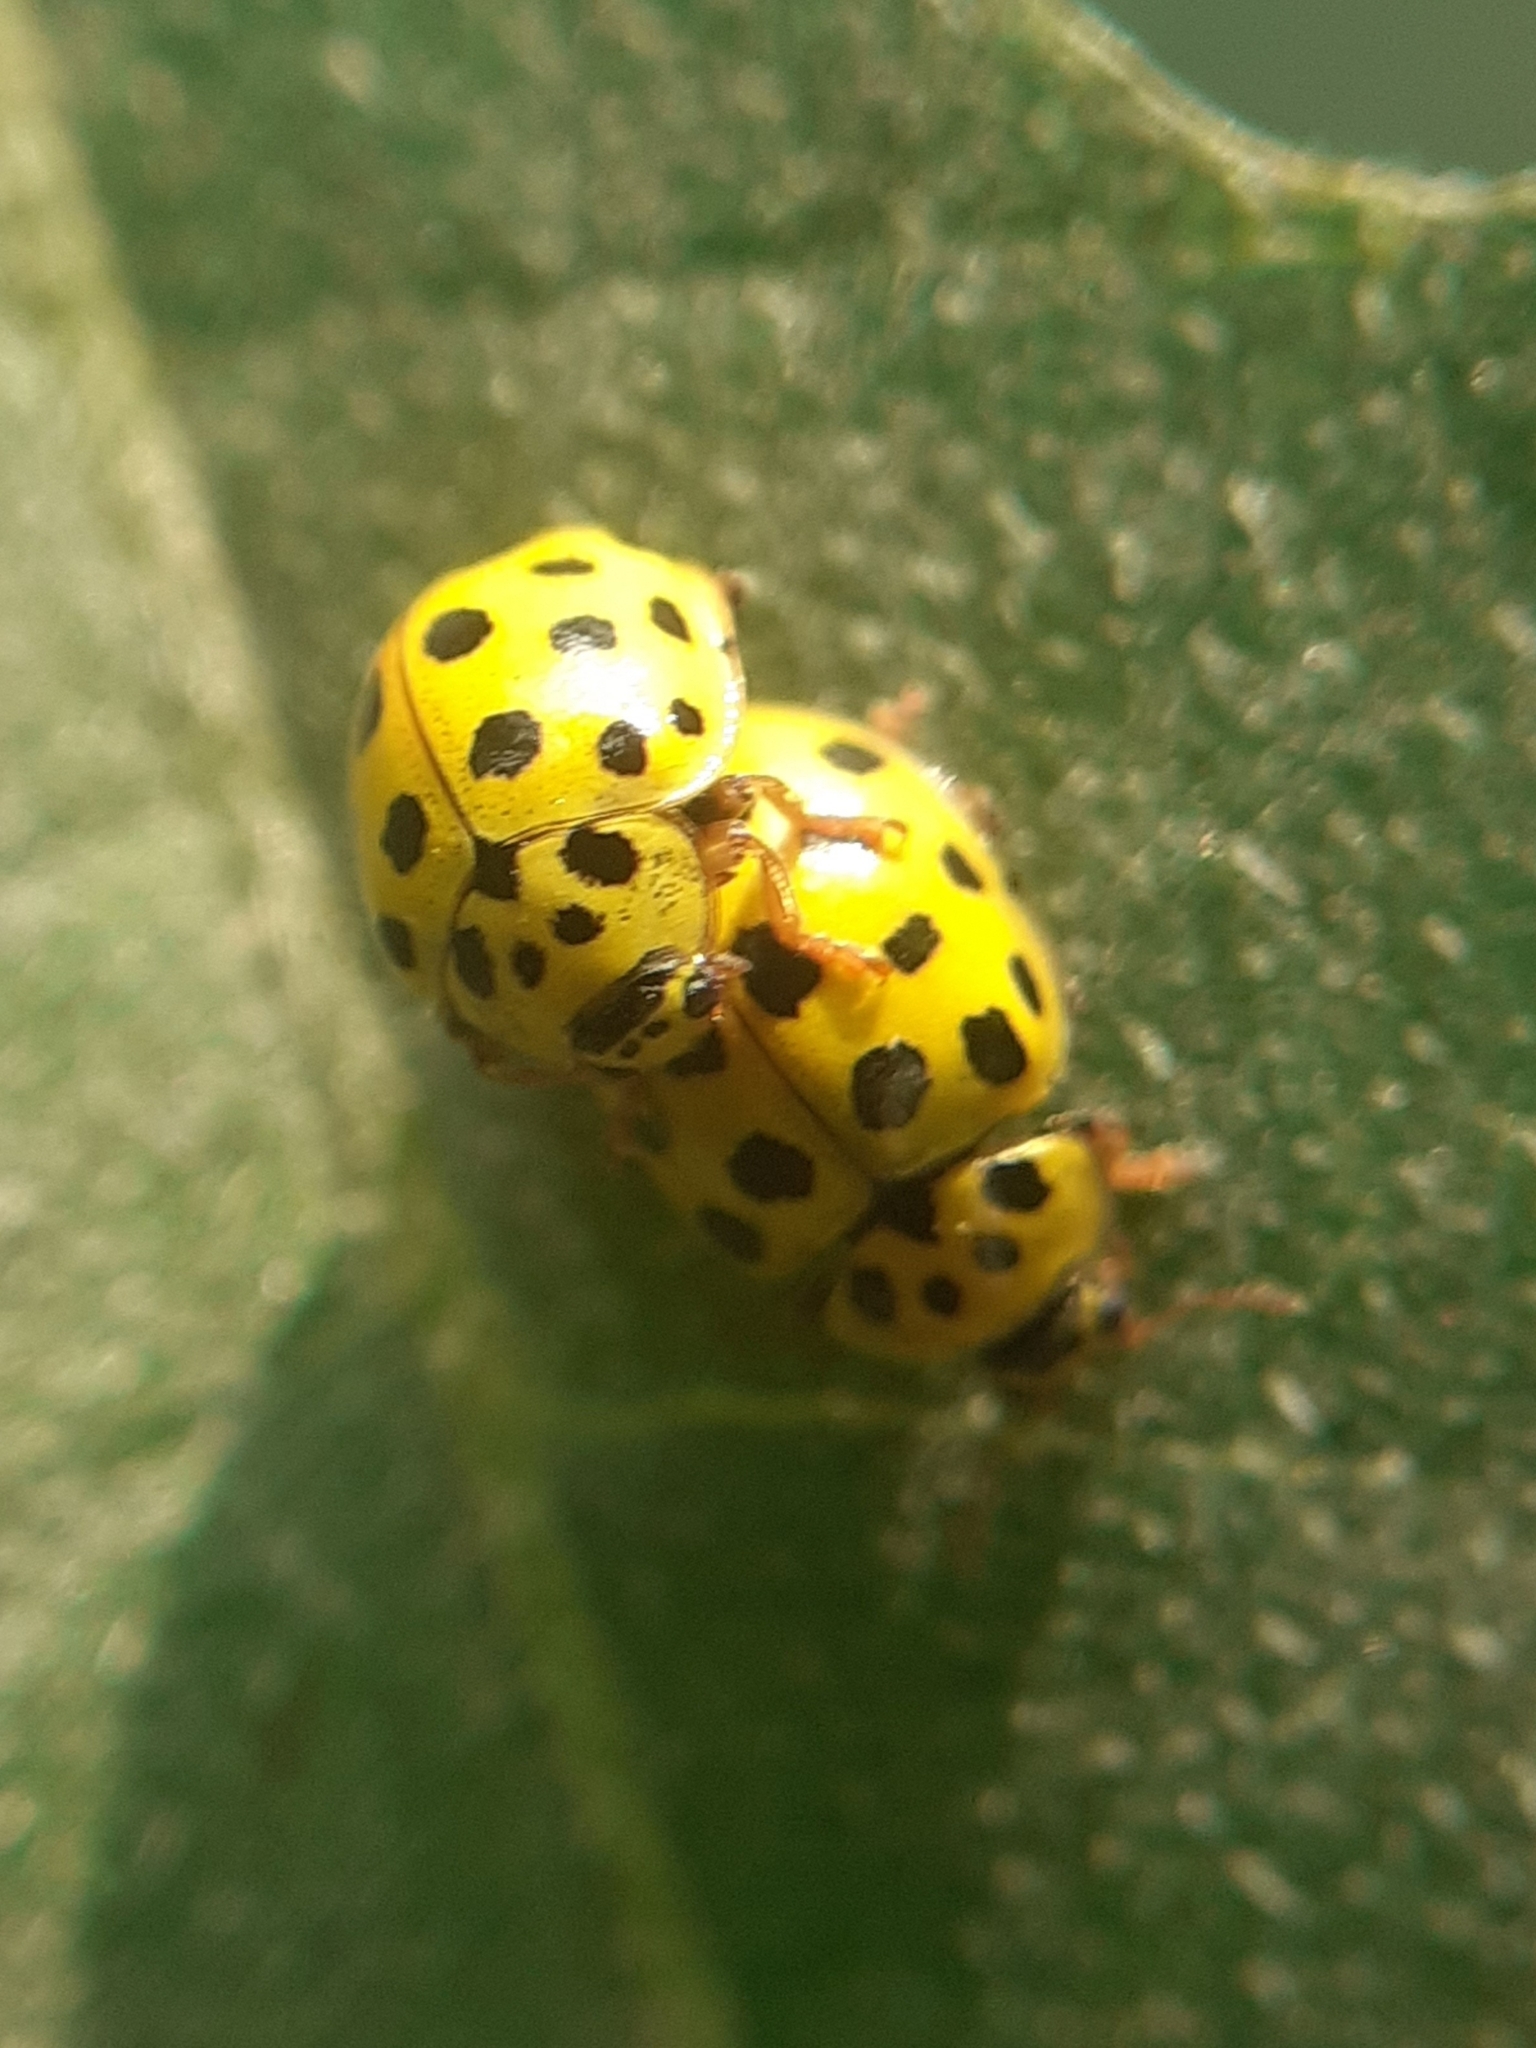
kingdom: Animalia
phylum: Arthropoda
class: Insecta
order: Coleoptera
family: Coccinellidae
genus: Psyllobora
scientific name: Psyllobora vigintiduopunctata
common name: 22-spot ladybird
